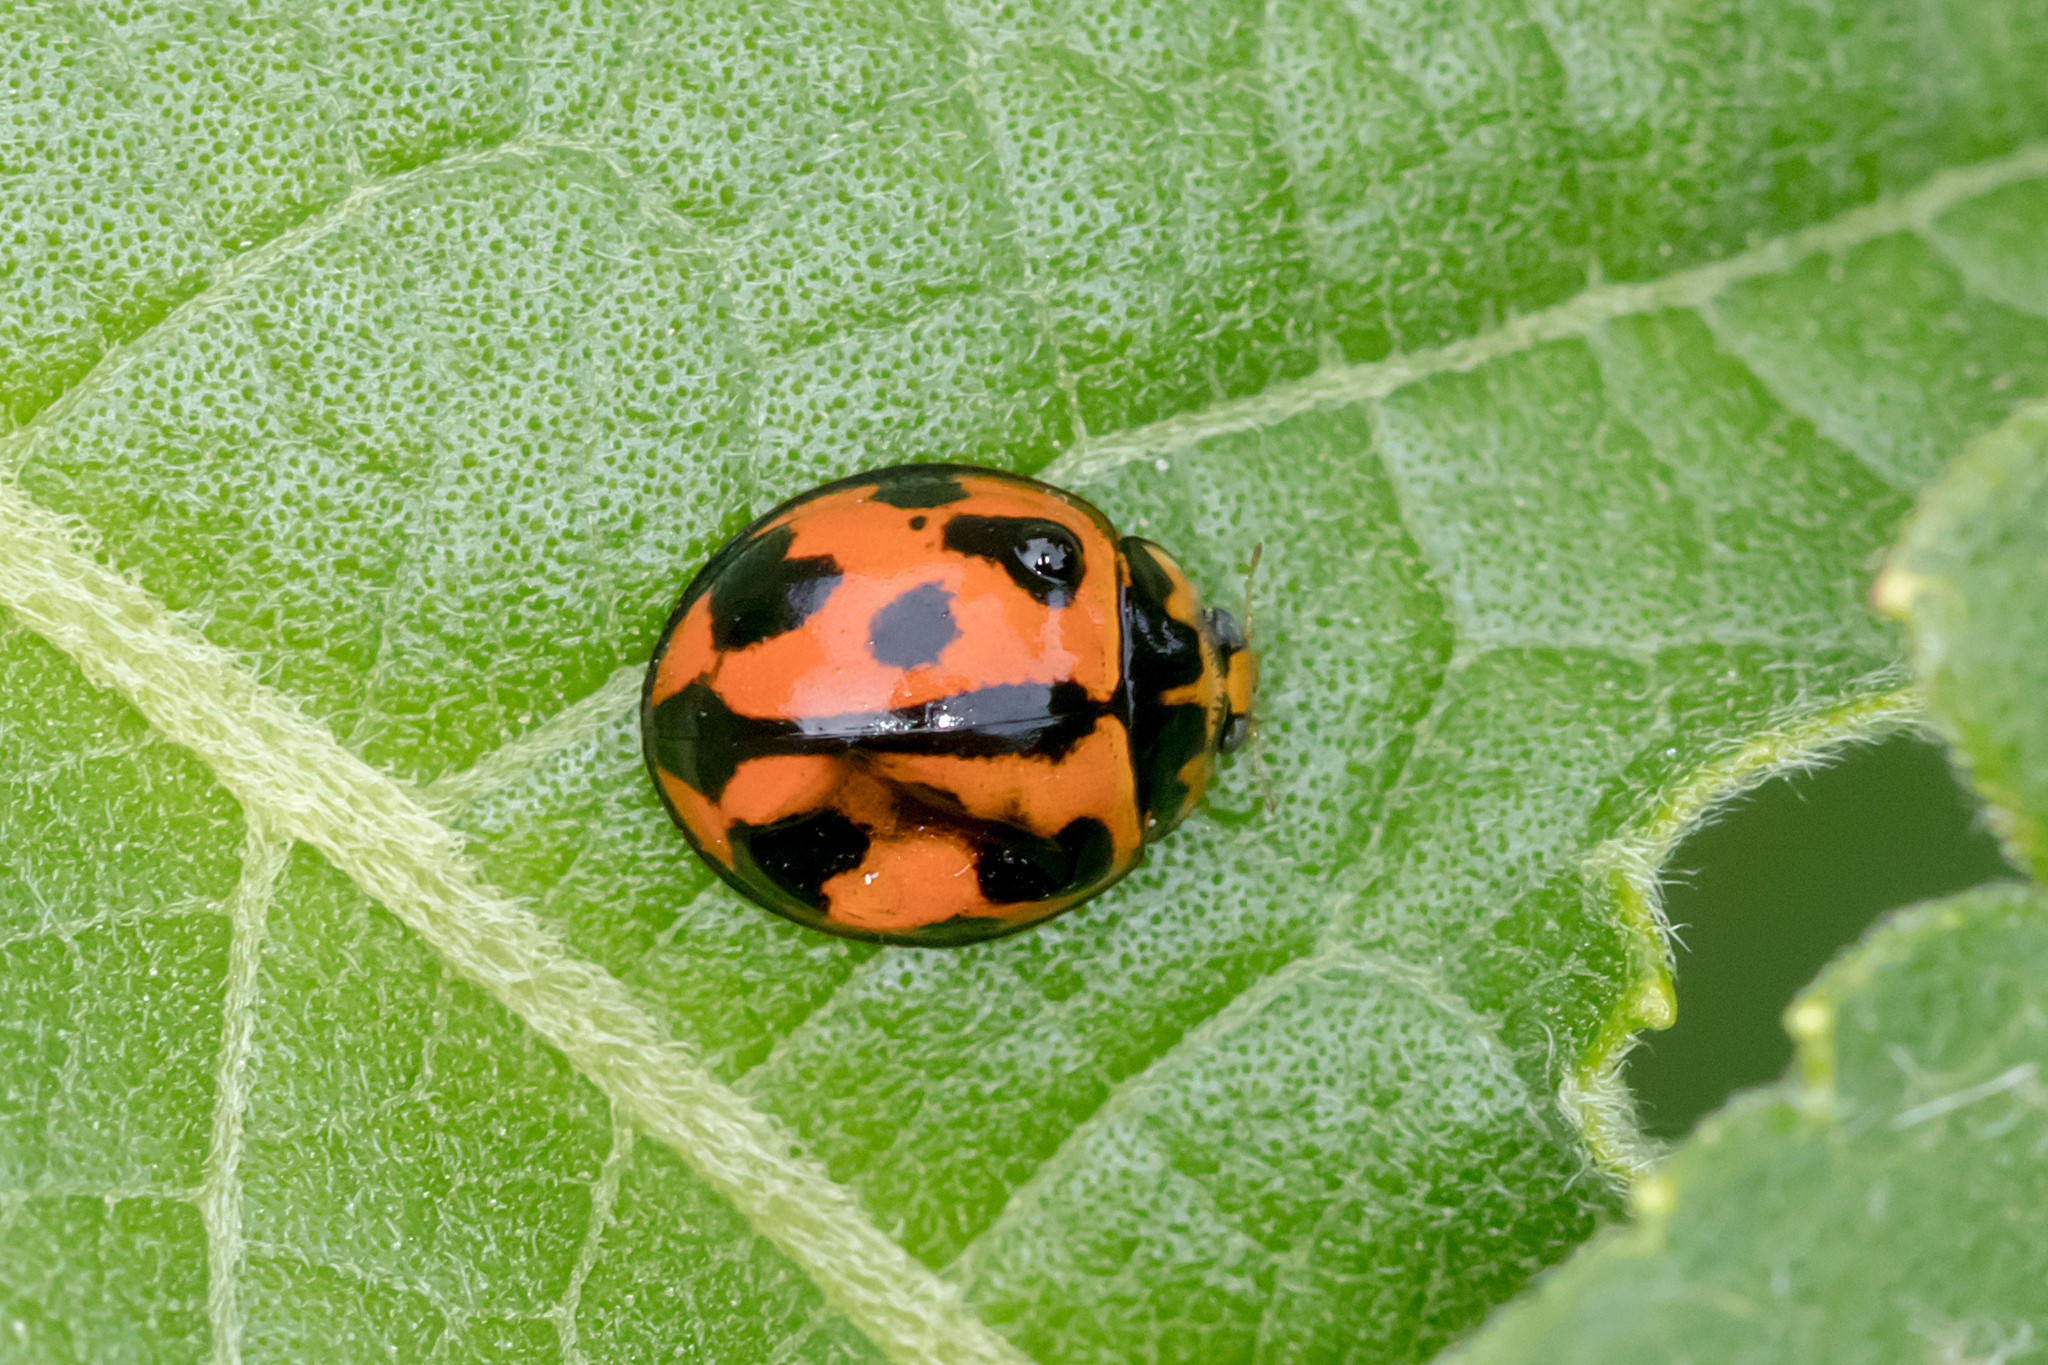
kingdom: Animalia
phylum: Arthropoda
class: Insecta
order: Coleoptera
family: Coccinellidae
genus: Coelophora
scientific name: Coelophora inaequalis
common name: Common australian lady beetle
